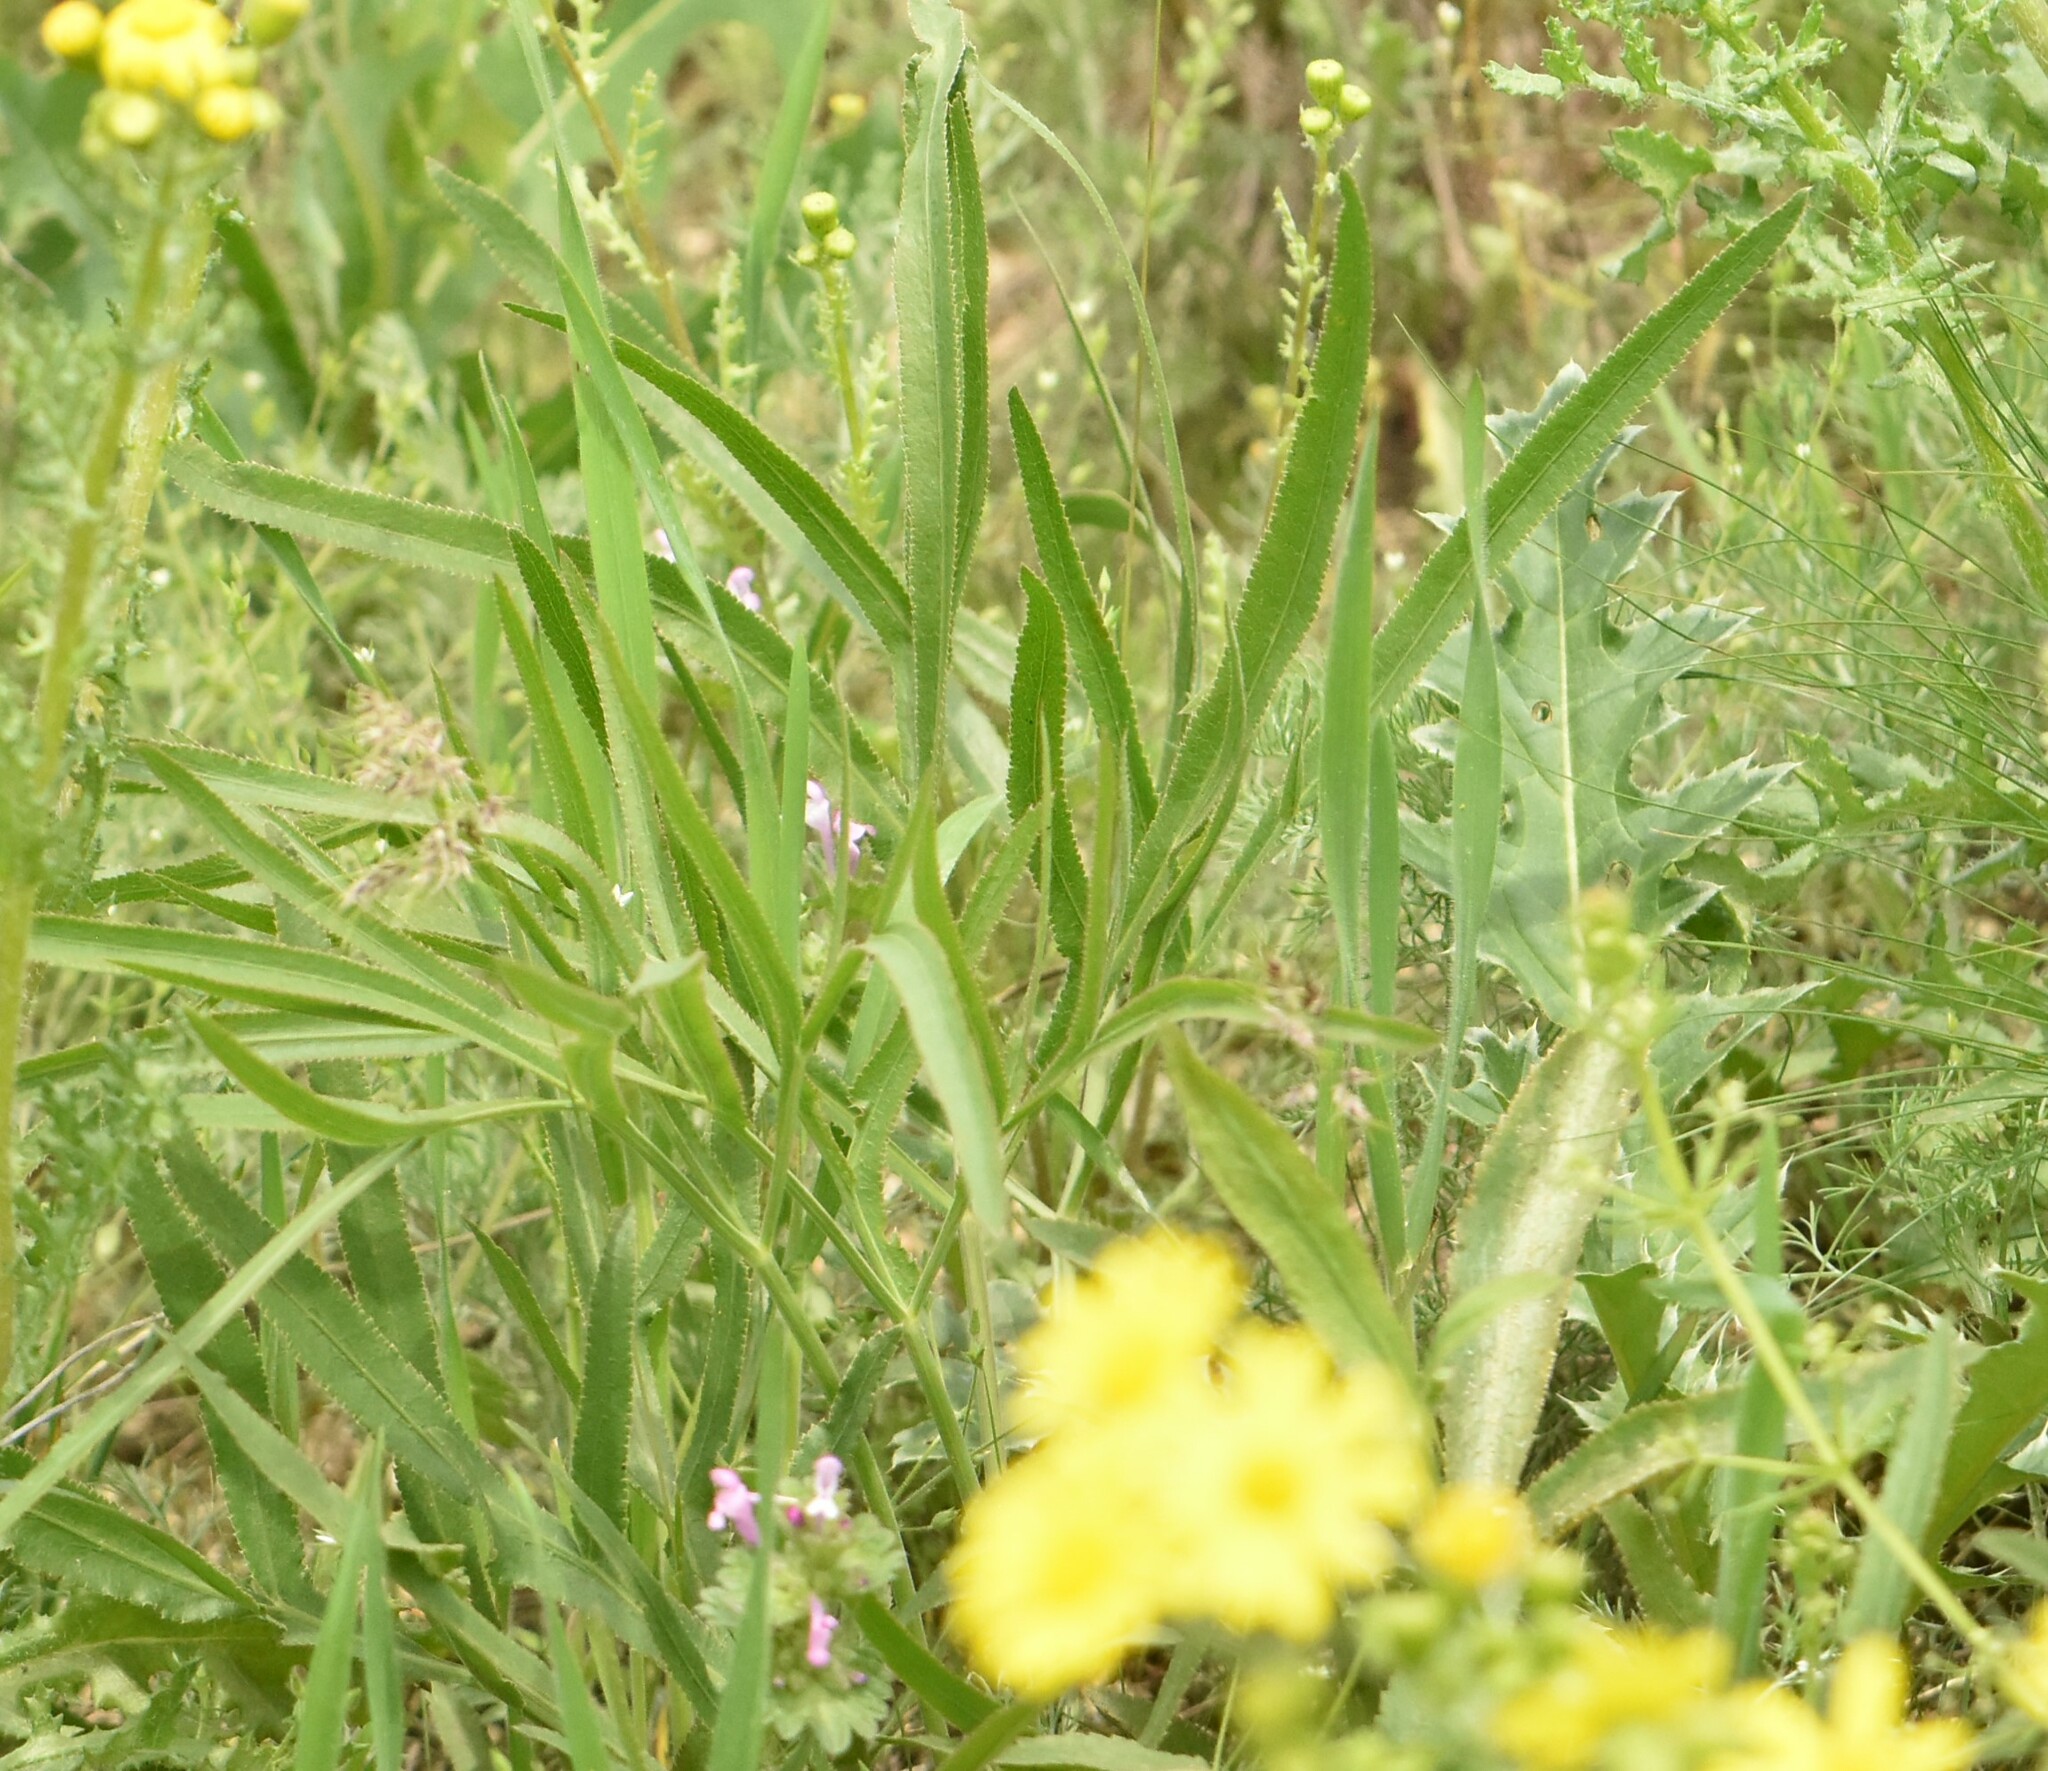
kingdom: Plantae
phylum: Tracheophyta
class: Magnoliopsida
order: Apiales
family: Apiaceae
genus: Falcaria
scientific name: Falcaria vulgaris
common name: Longleaf
